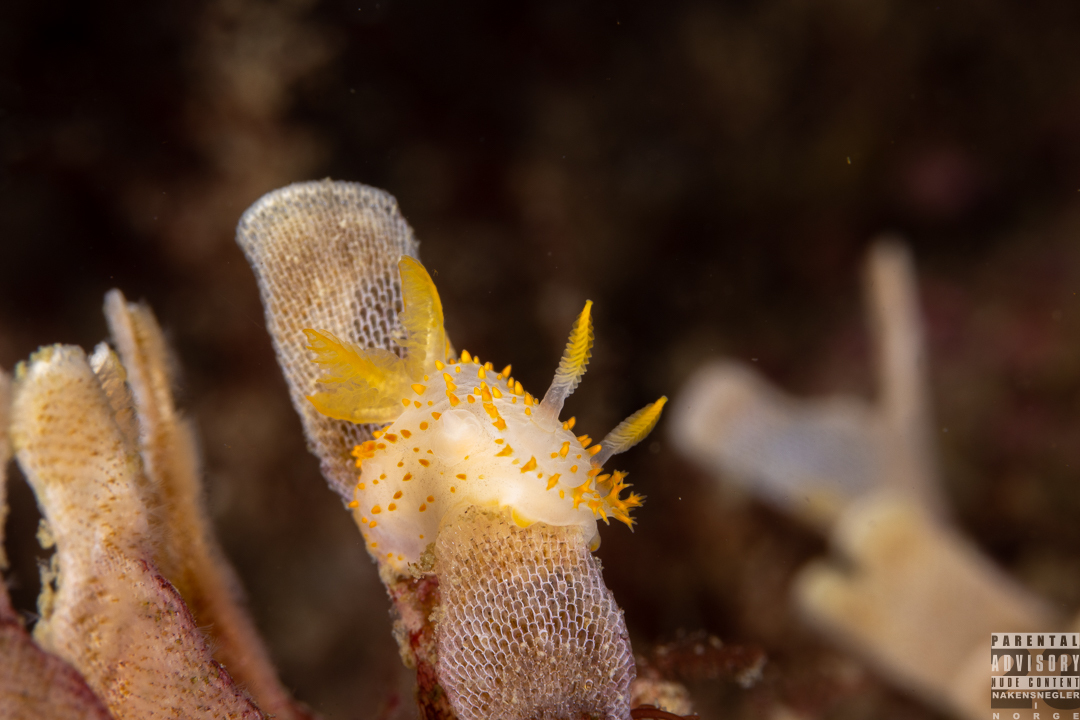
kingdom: Animalia
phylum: Mollusca
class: Gastropoda
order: Nudibranchia
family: Polyceridae
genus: Crimora
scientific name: Crimora papillata
